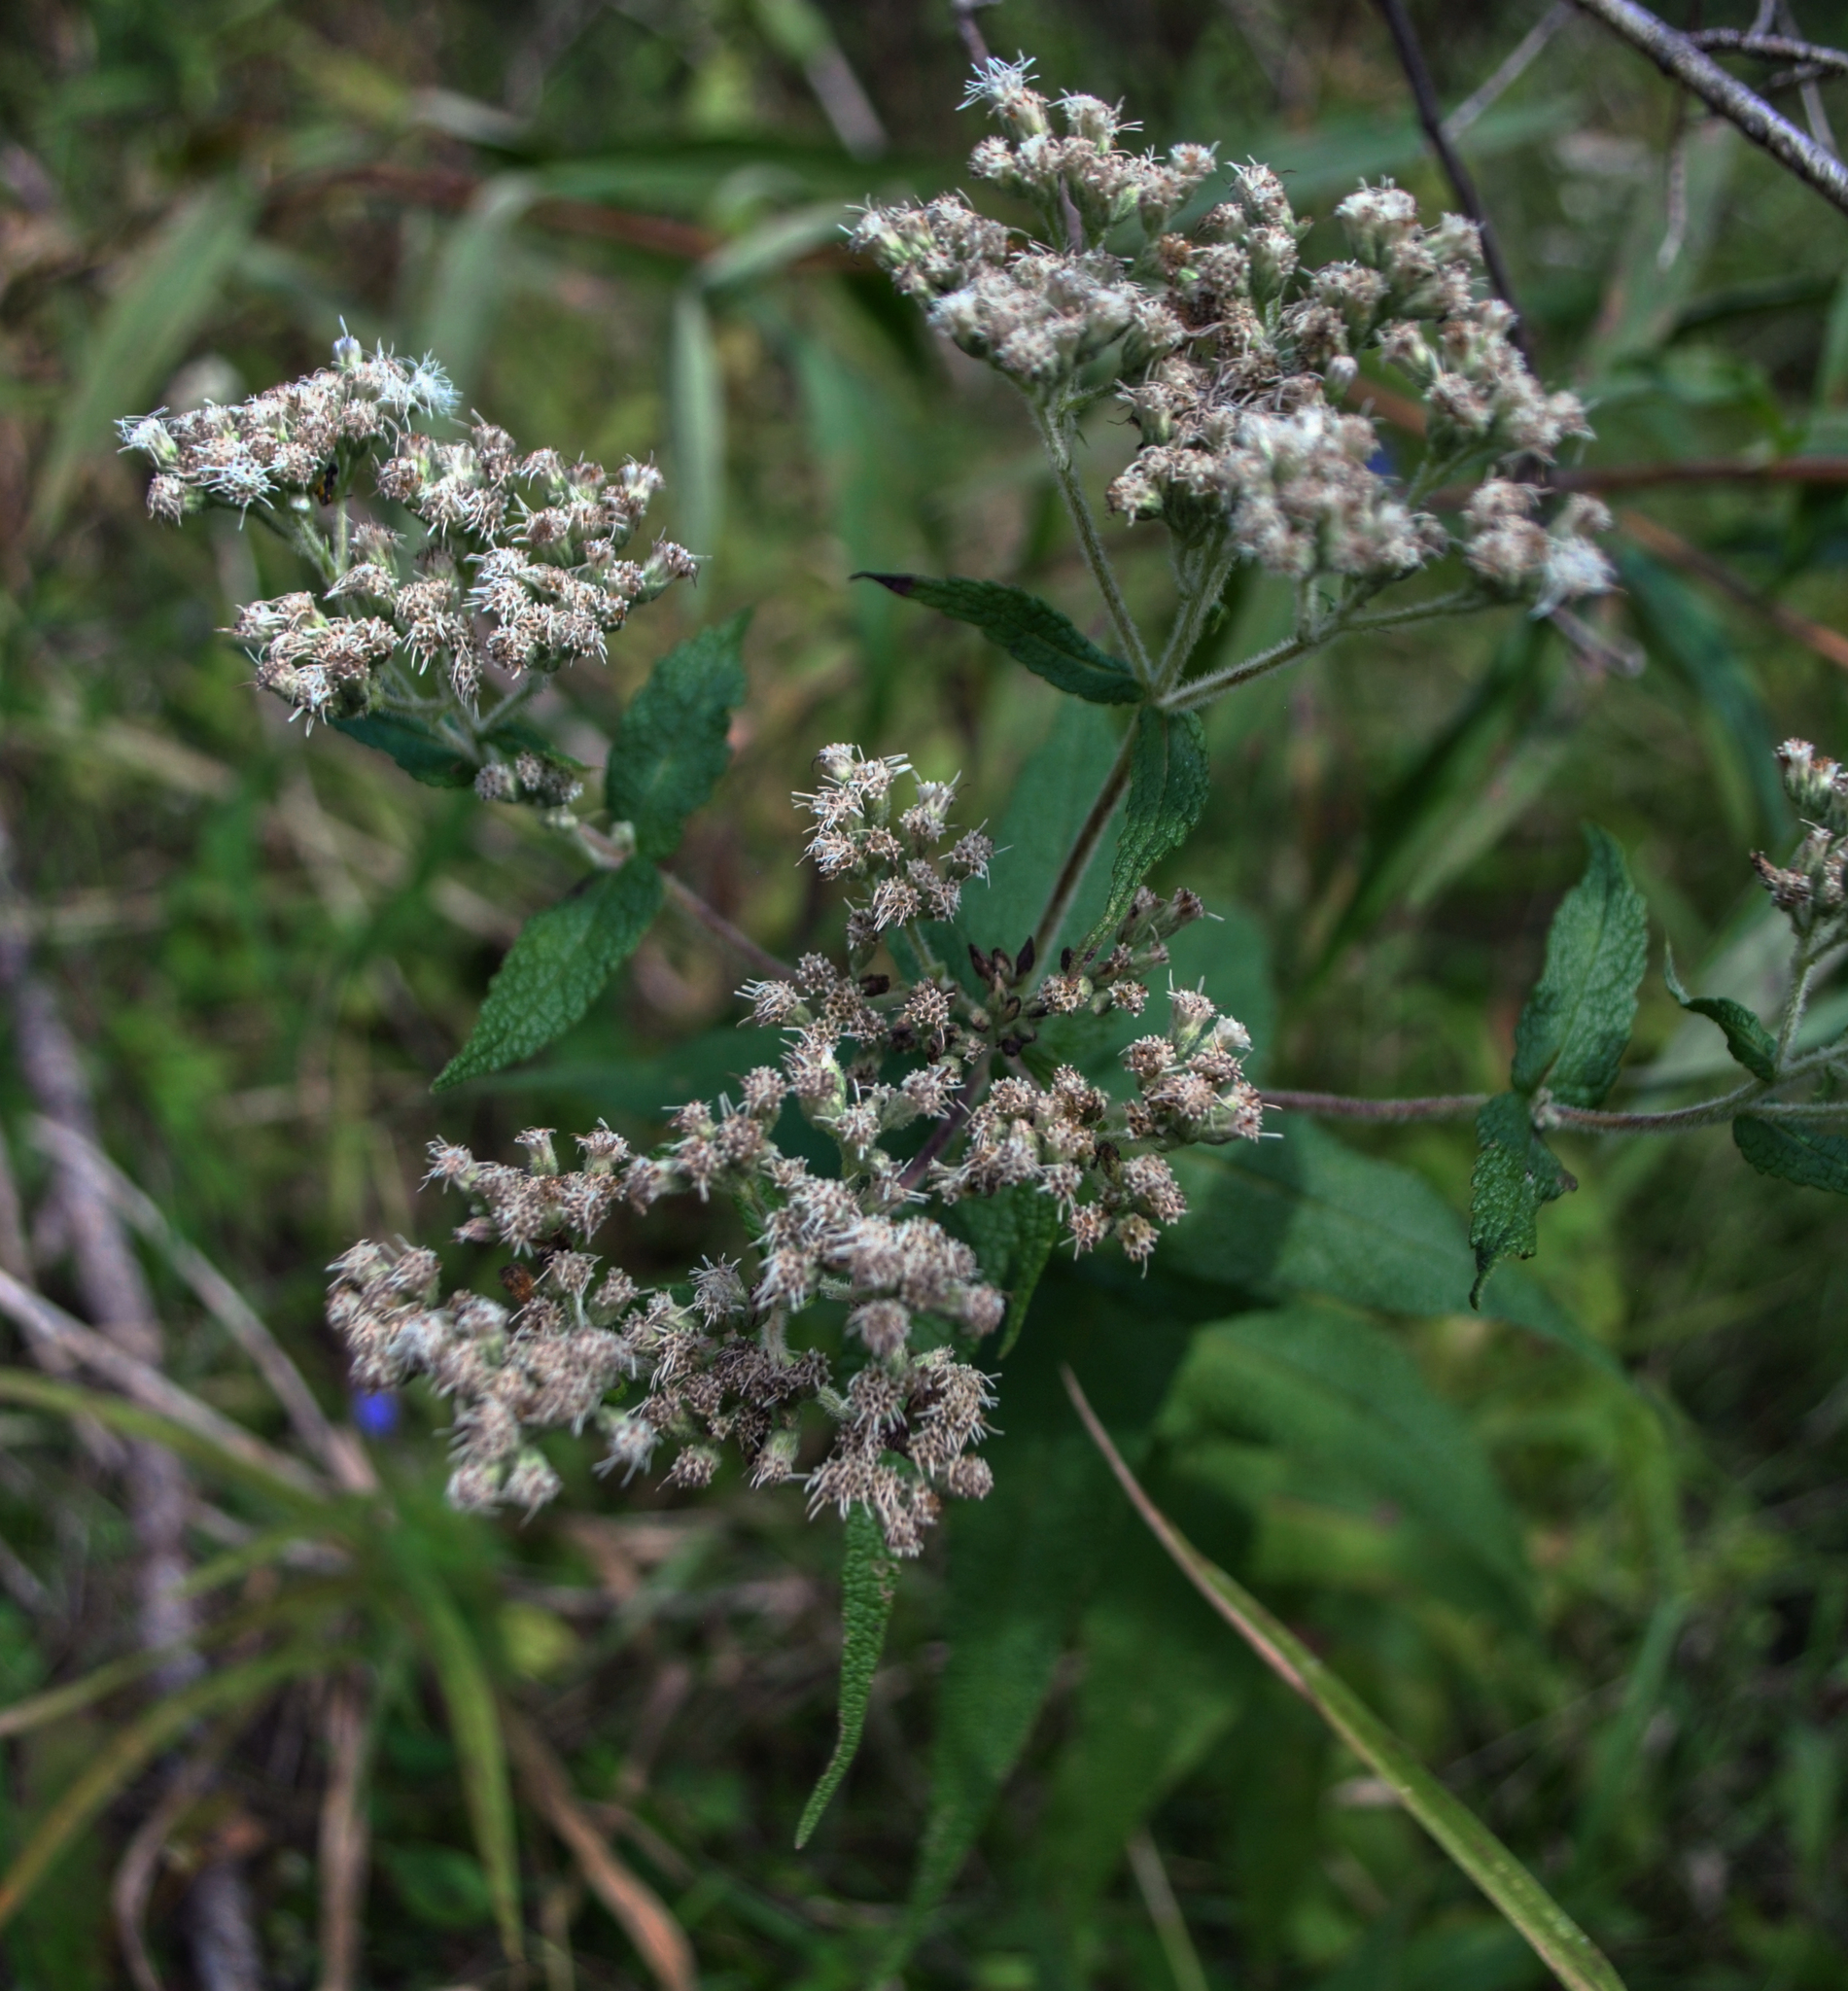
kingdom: Plantae
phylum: Tracheophyta
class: Magnoliopsida
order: Asterales
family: Asteraceae
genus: Eupatorium
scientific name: Eupatorium perfoliatum
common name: Boneset
